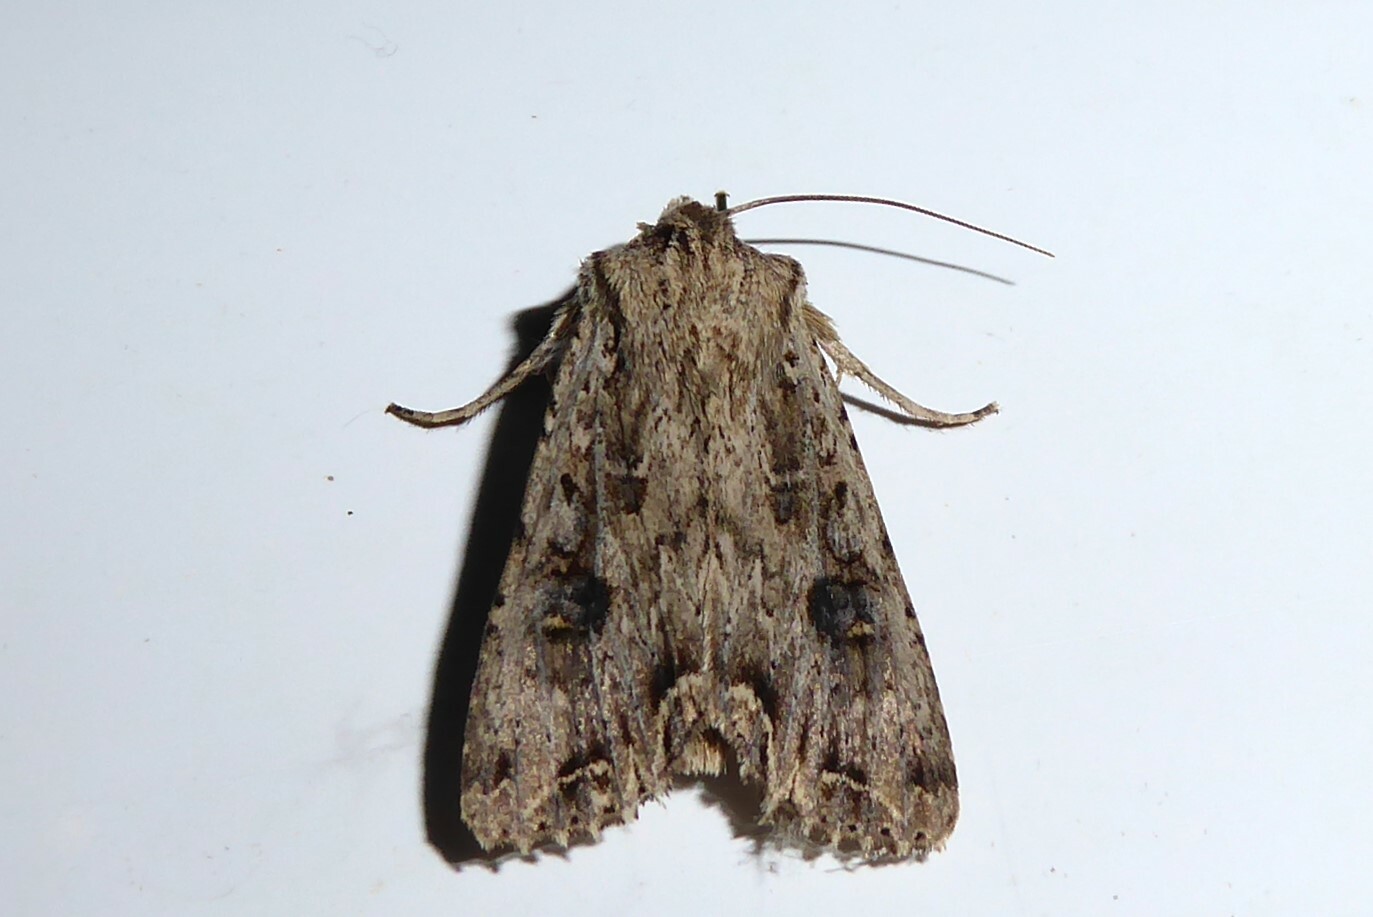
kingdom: Animalia
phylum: Arthropoda
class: Insecta
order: Lepidoptera
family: Noctuidae
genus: Ichneutica
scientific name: Ichneutica lignana
